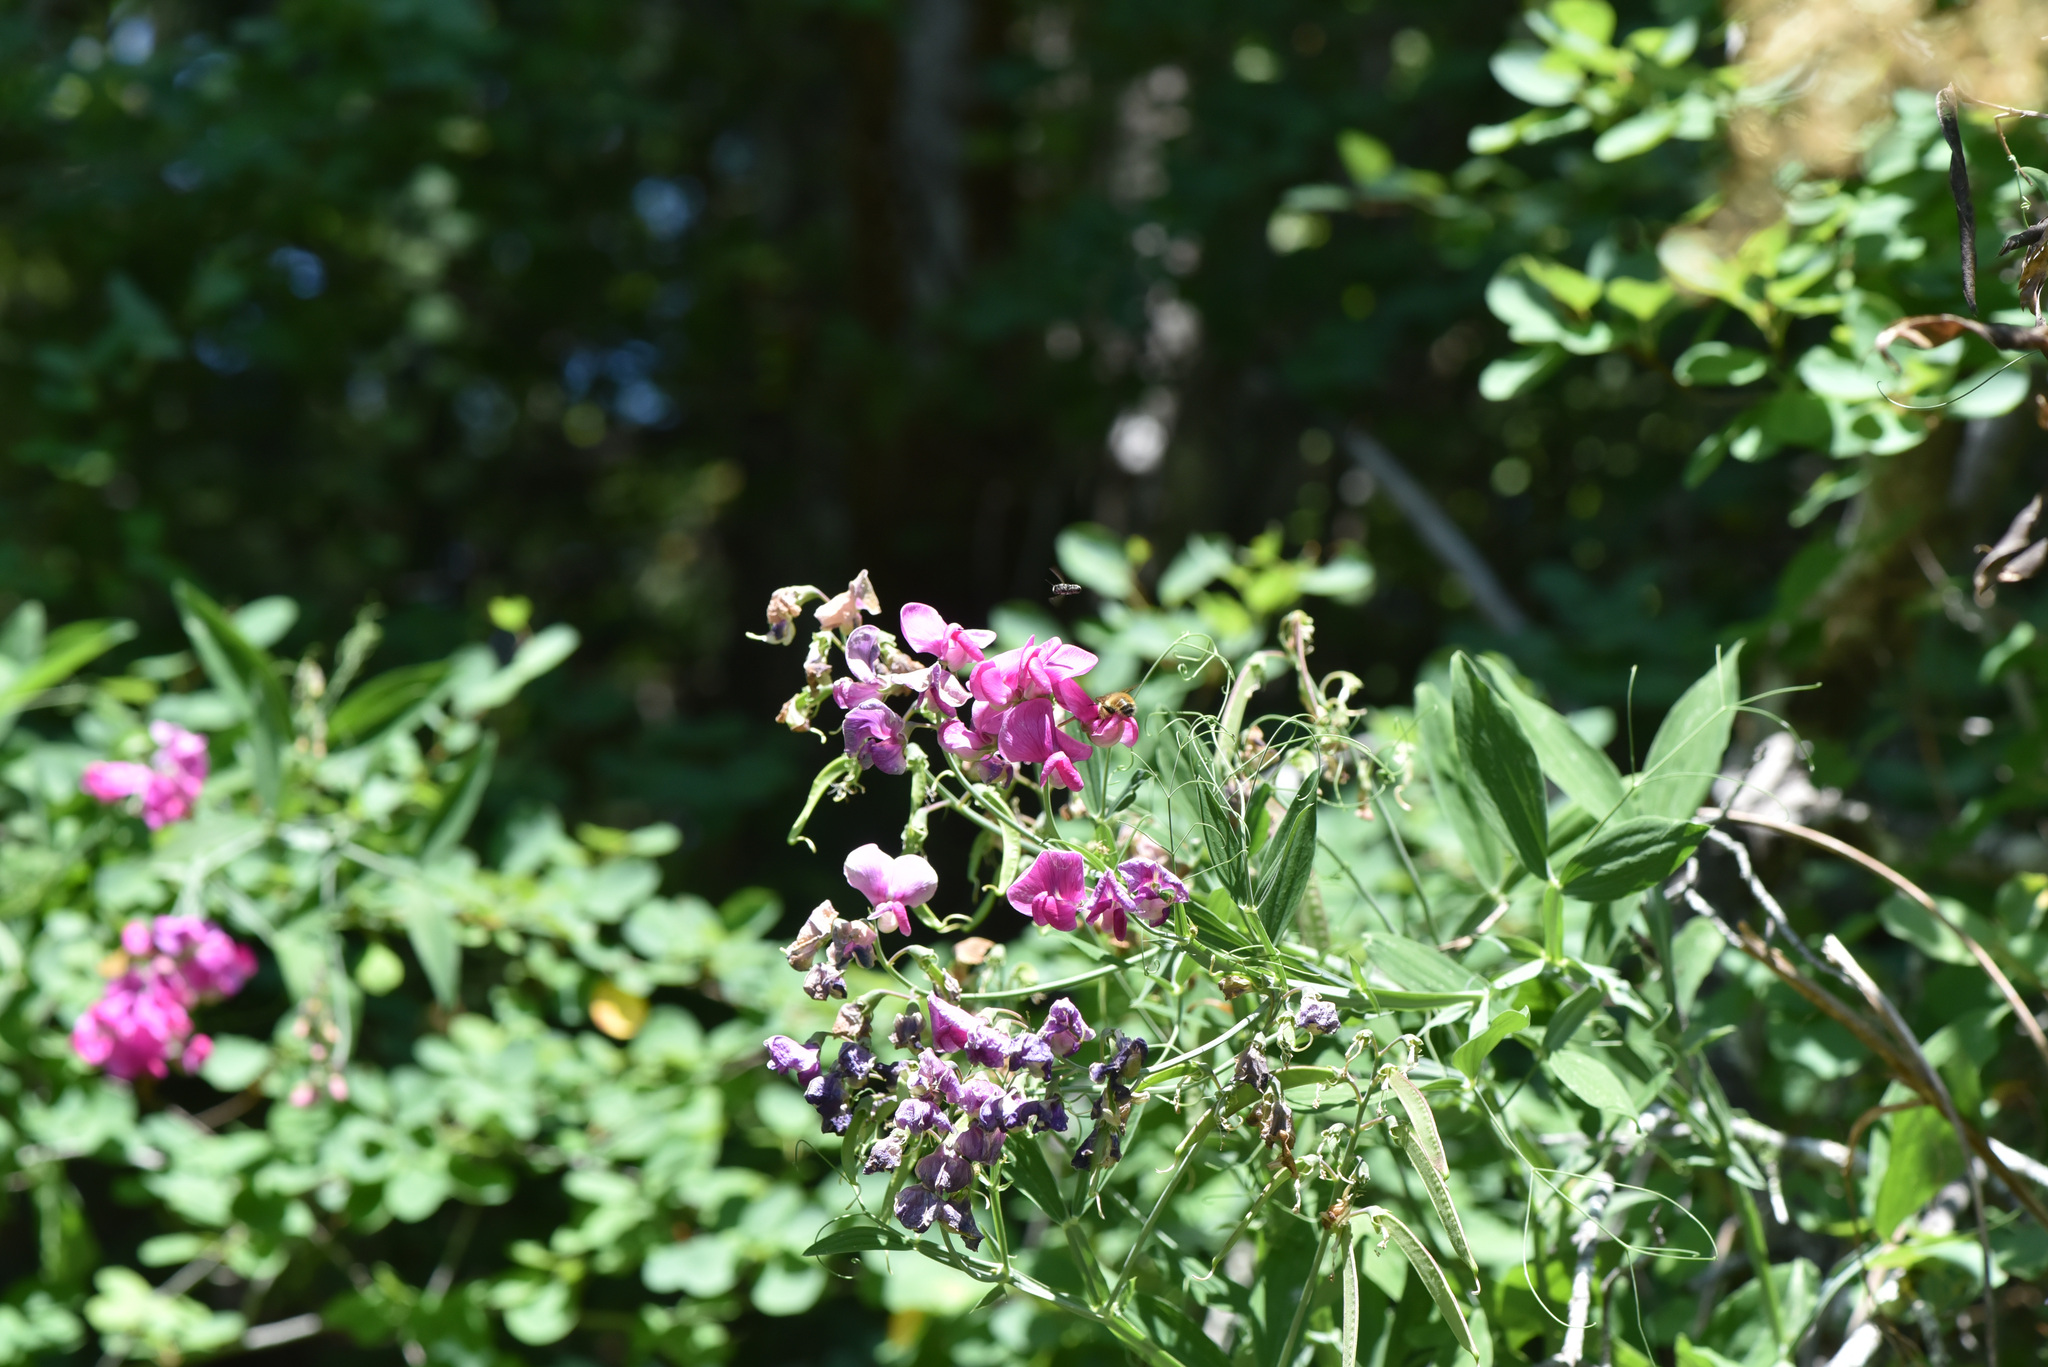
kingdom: Plantae
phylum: Tracheophyta
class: Magnoliopsida
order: Fabales
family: Fabaceae
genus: Lathyrus
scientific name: Lathyrus latifolius
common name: Perennial pea
